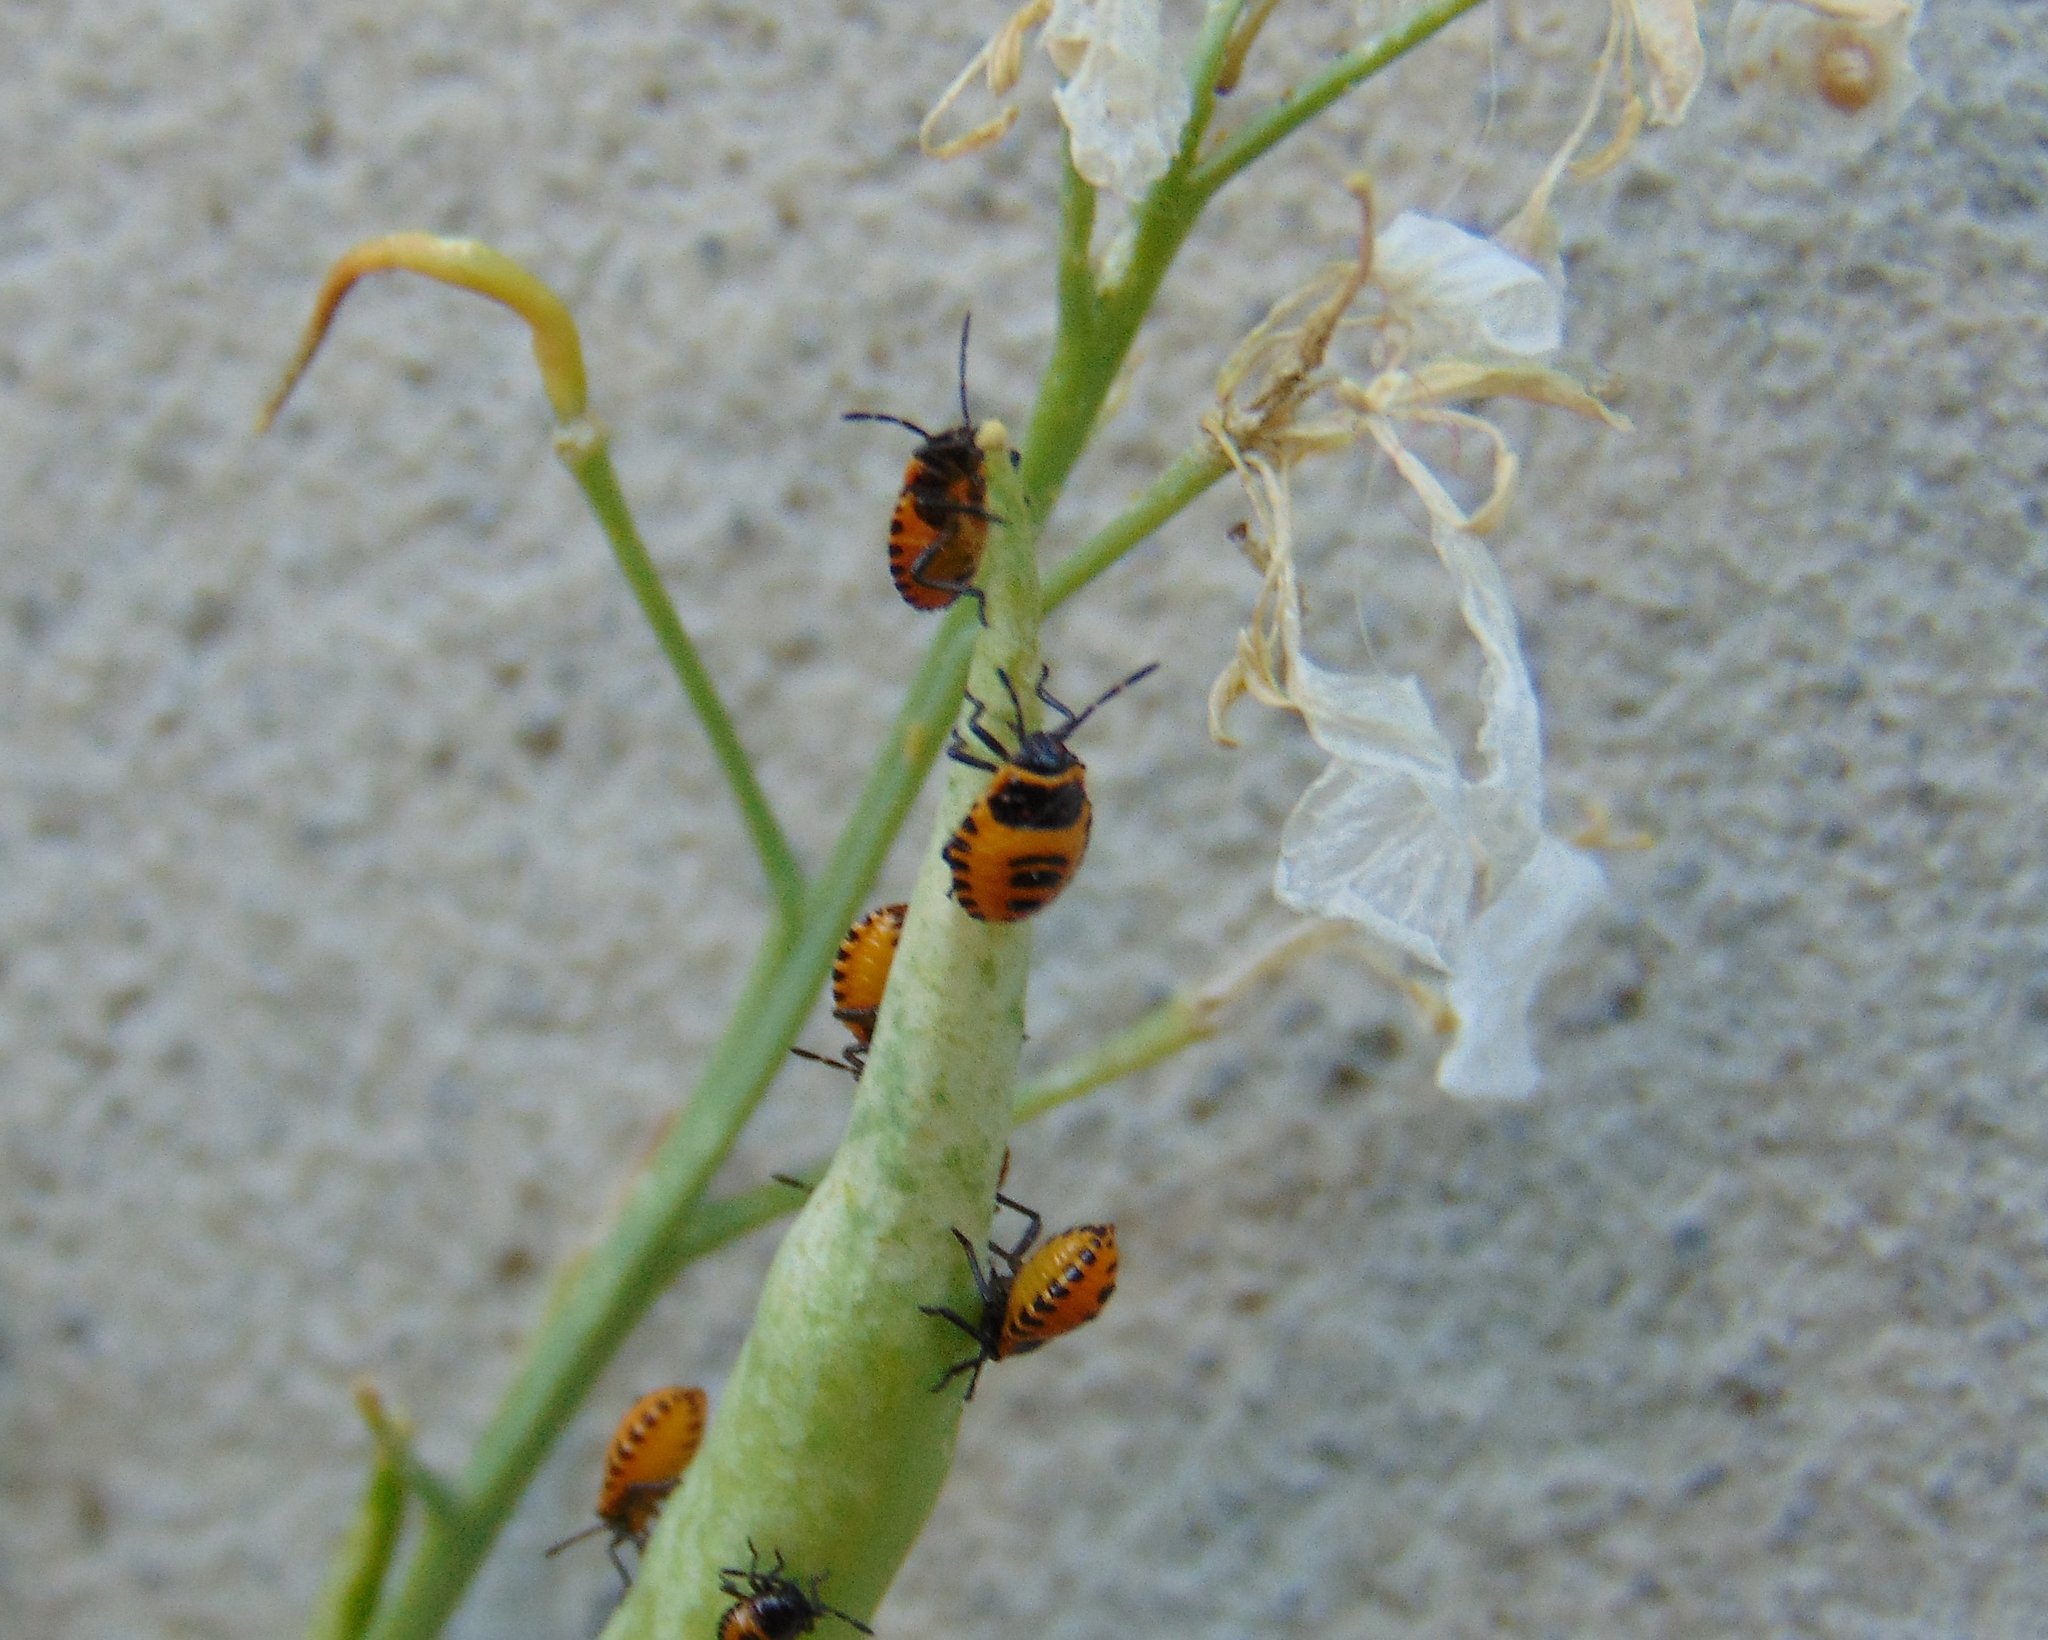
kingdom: Animalia
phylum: Arthropoda
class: Insecta
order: Hemiptera
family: Pentatomidae
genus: Eurydema
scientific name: Eurydema ventralis
